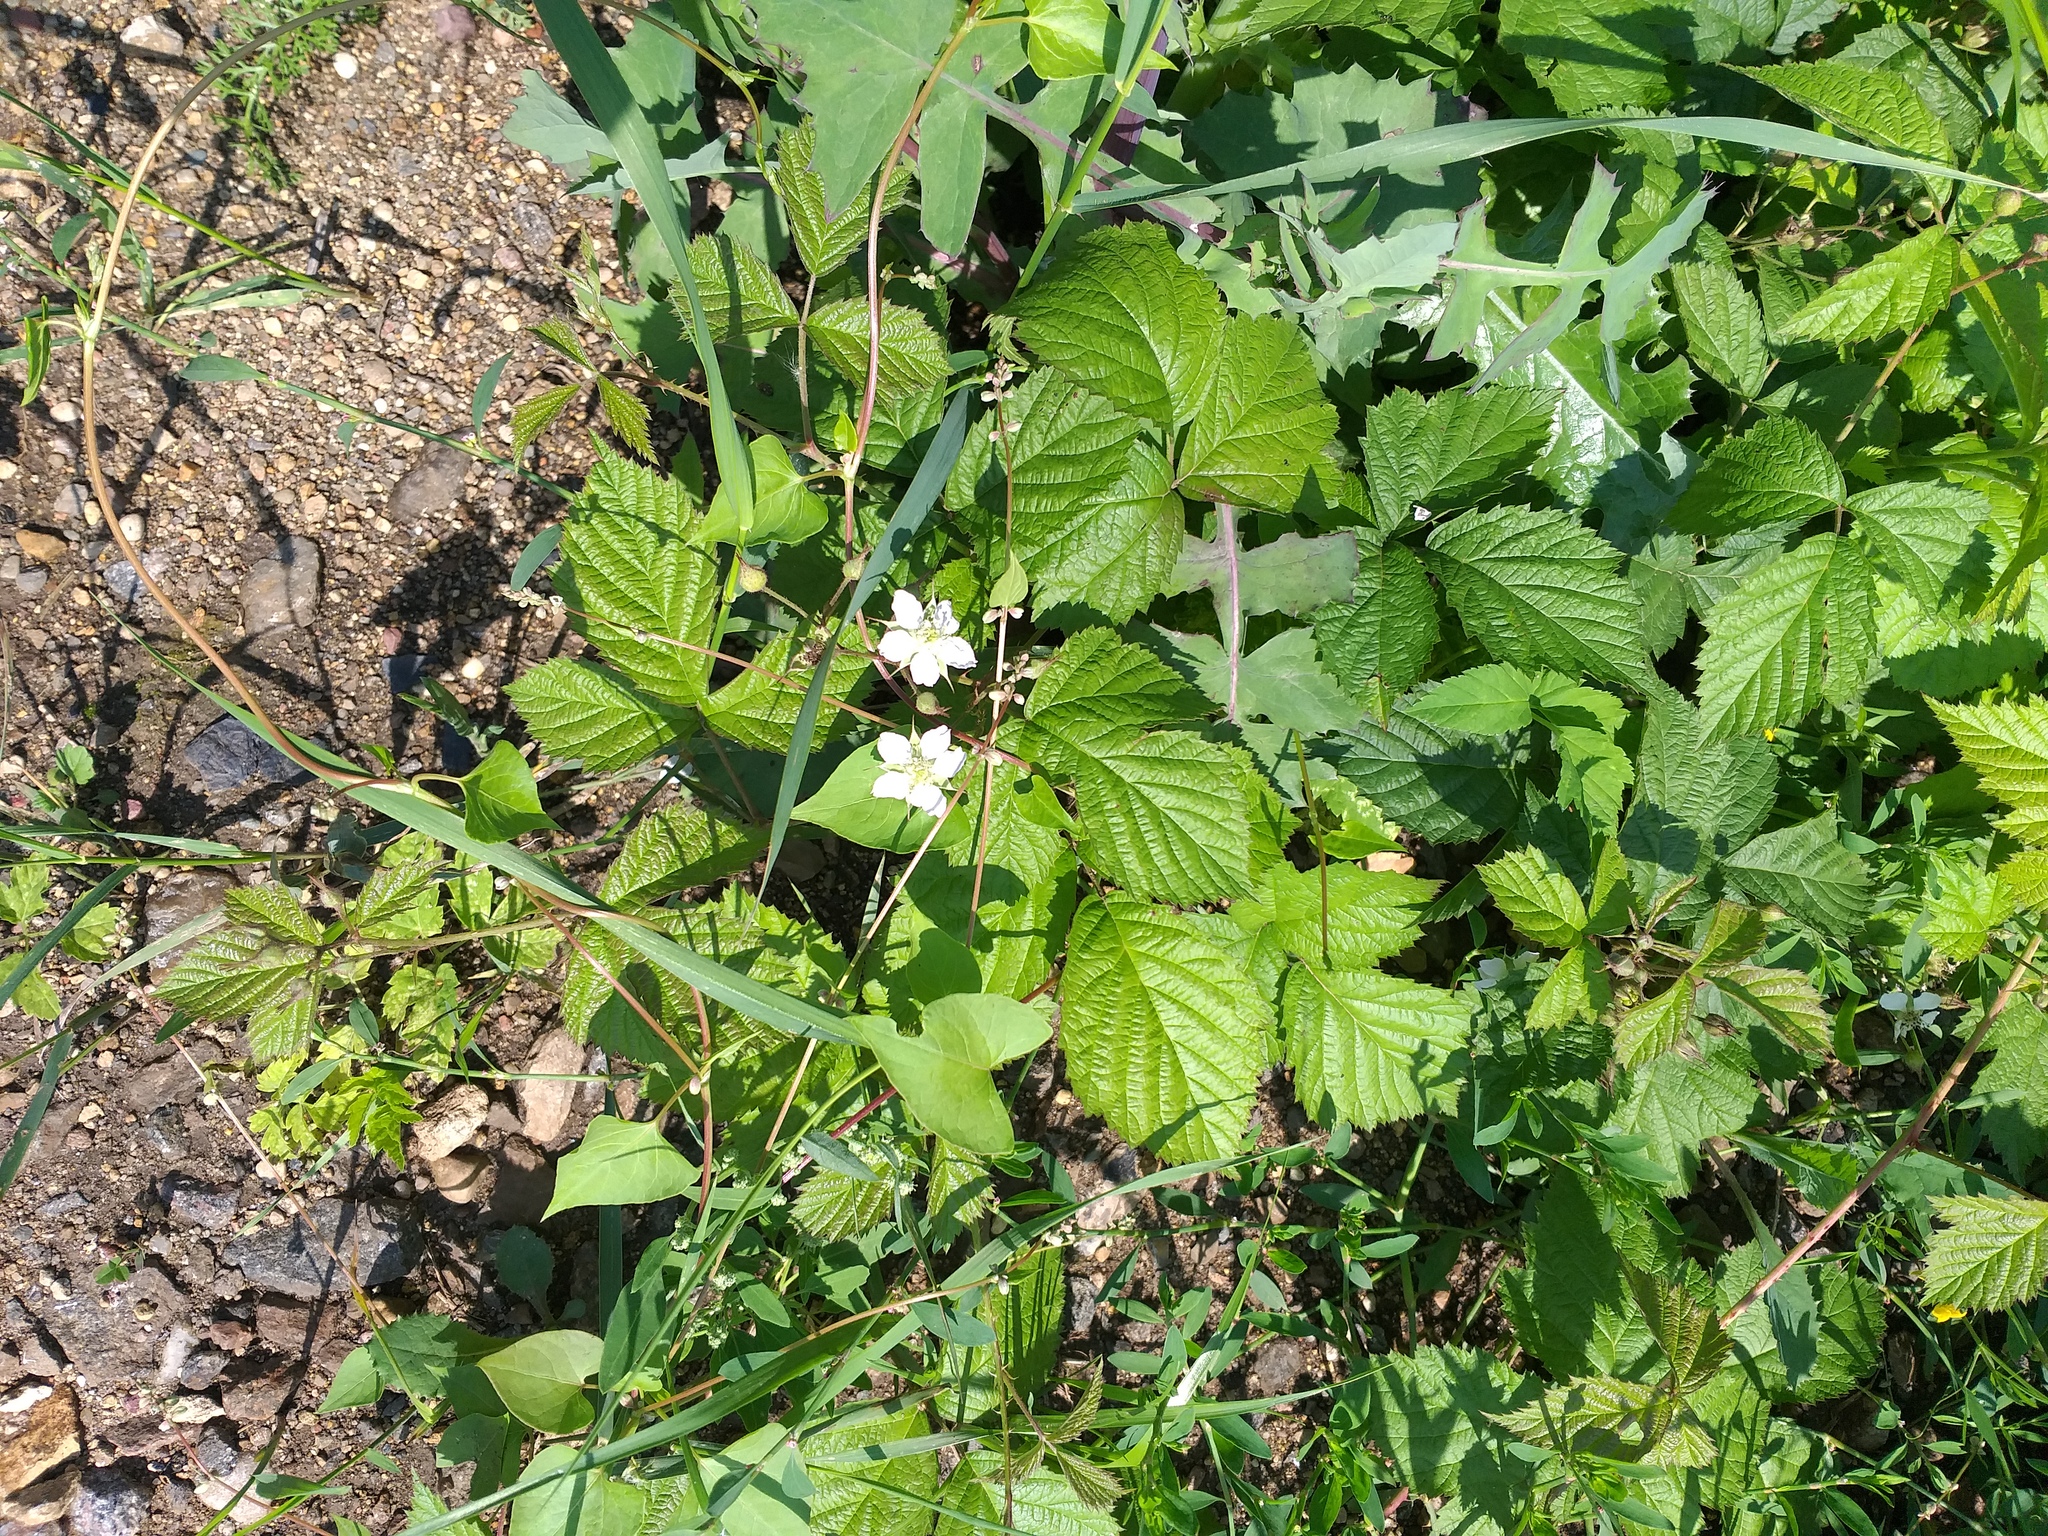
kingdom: Plantae
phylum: Tracheophyta
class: Magnoliopsida
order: Rosales
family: Rosaceae
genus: Rubus
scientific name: Rubus caesius
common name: Dewberry
